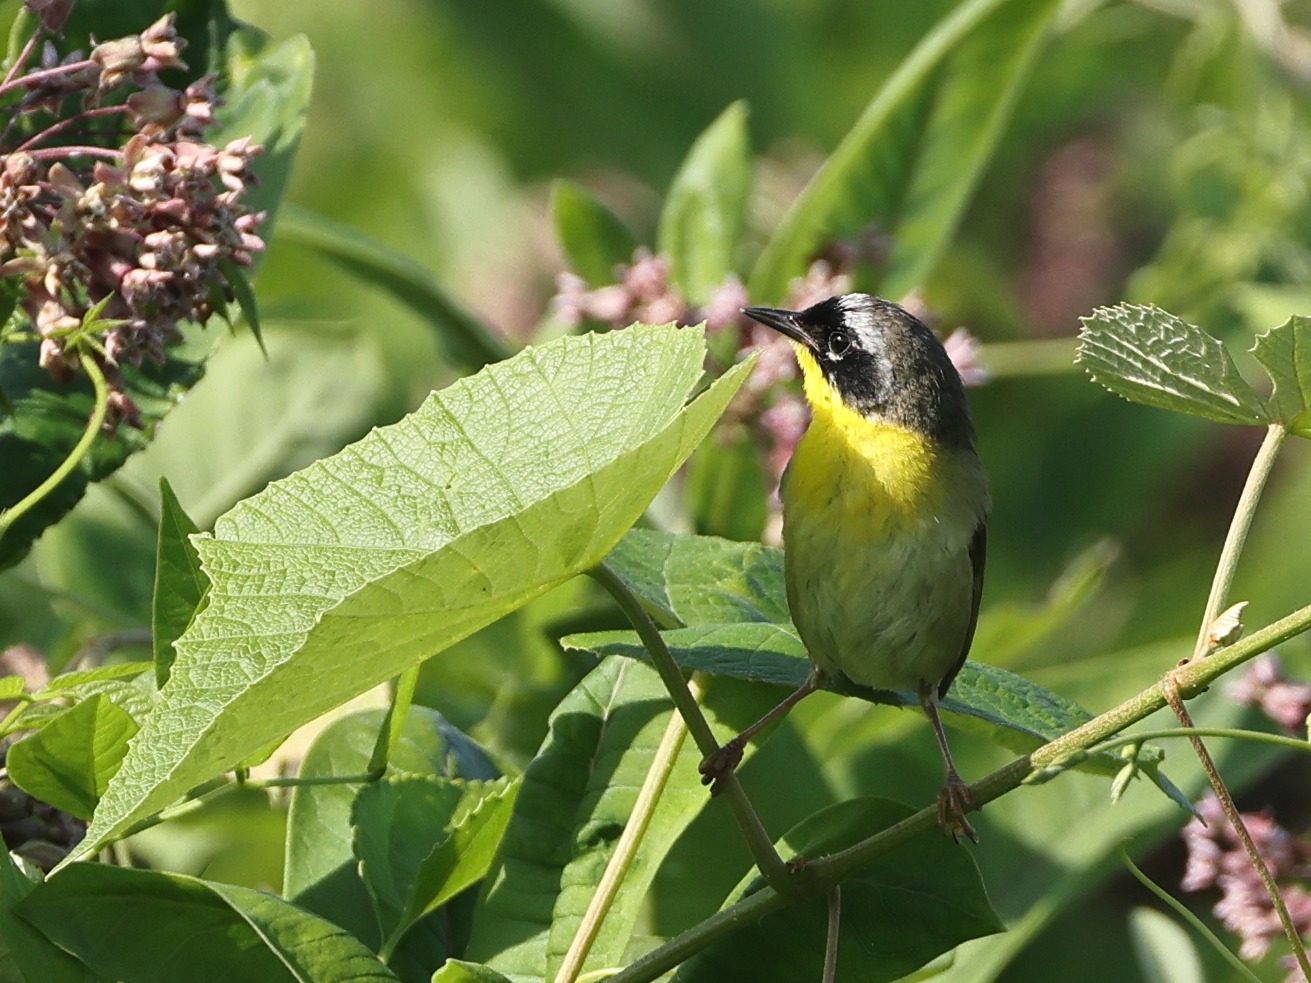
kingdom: Animalia
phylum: Chordata
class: Aves
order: Passeriformes
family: Parulidae
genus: Geothlypis
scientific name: Geothlypis trichas
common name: Common yellowthroat
